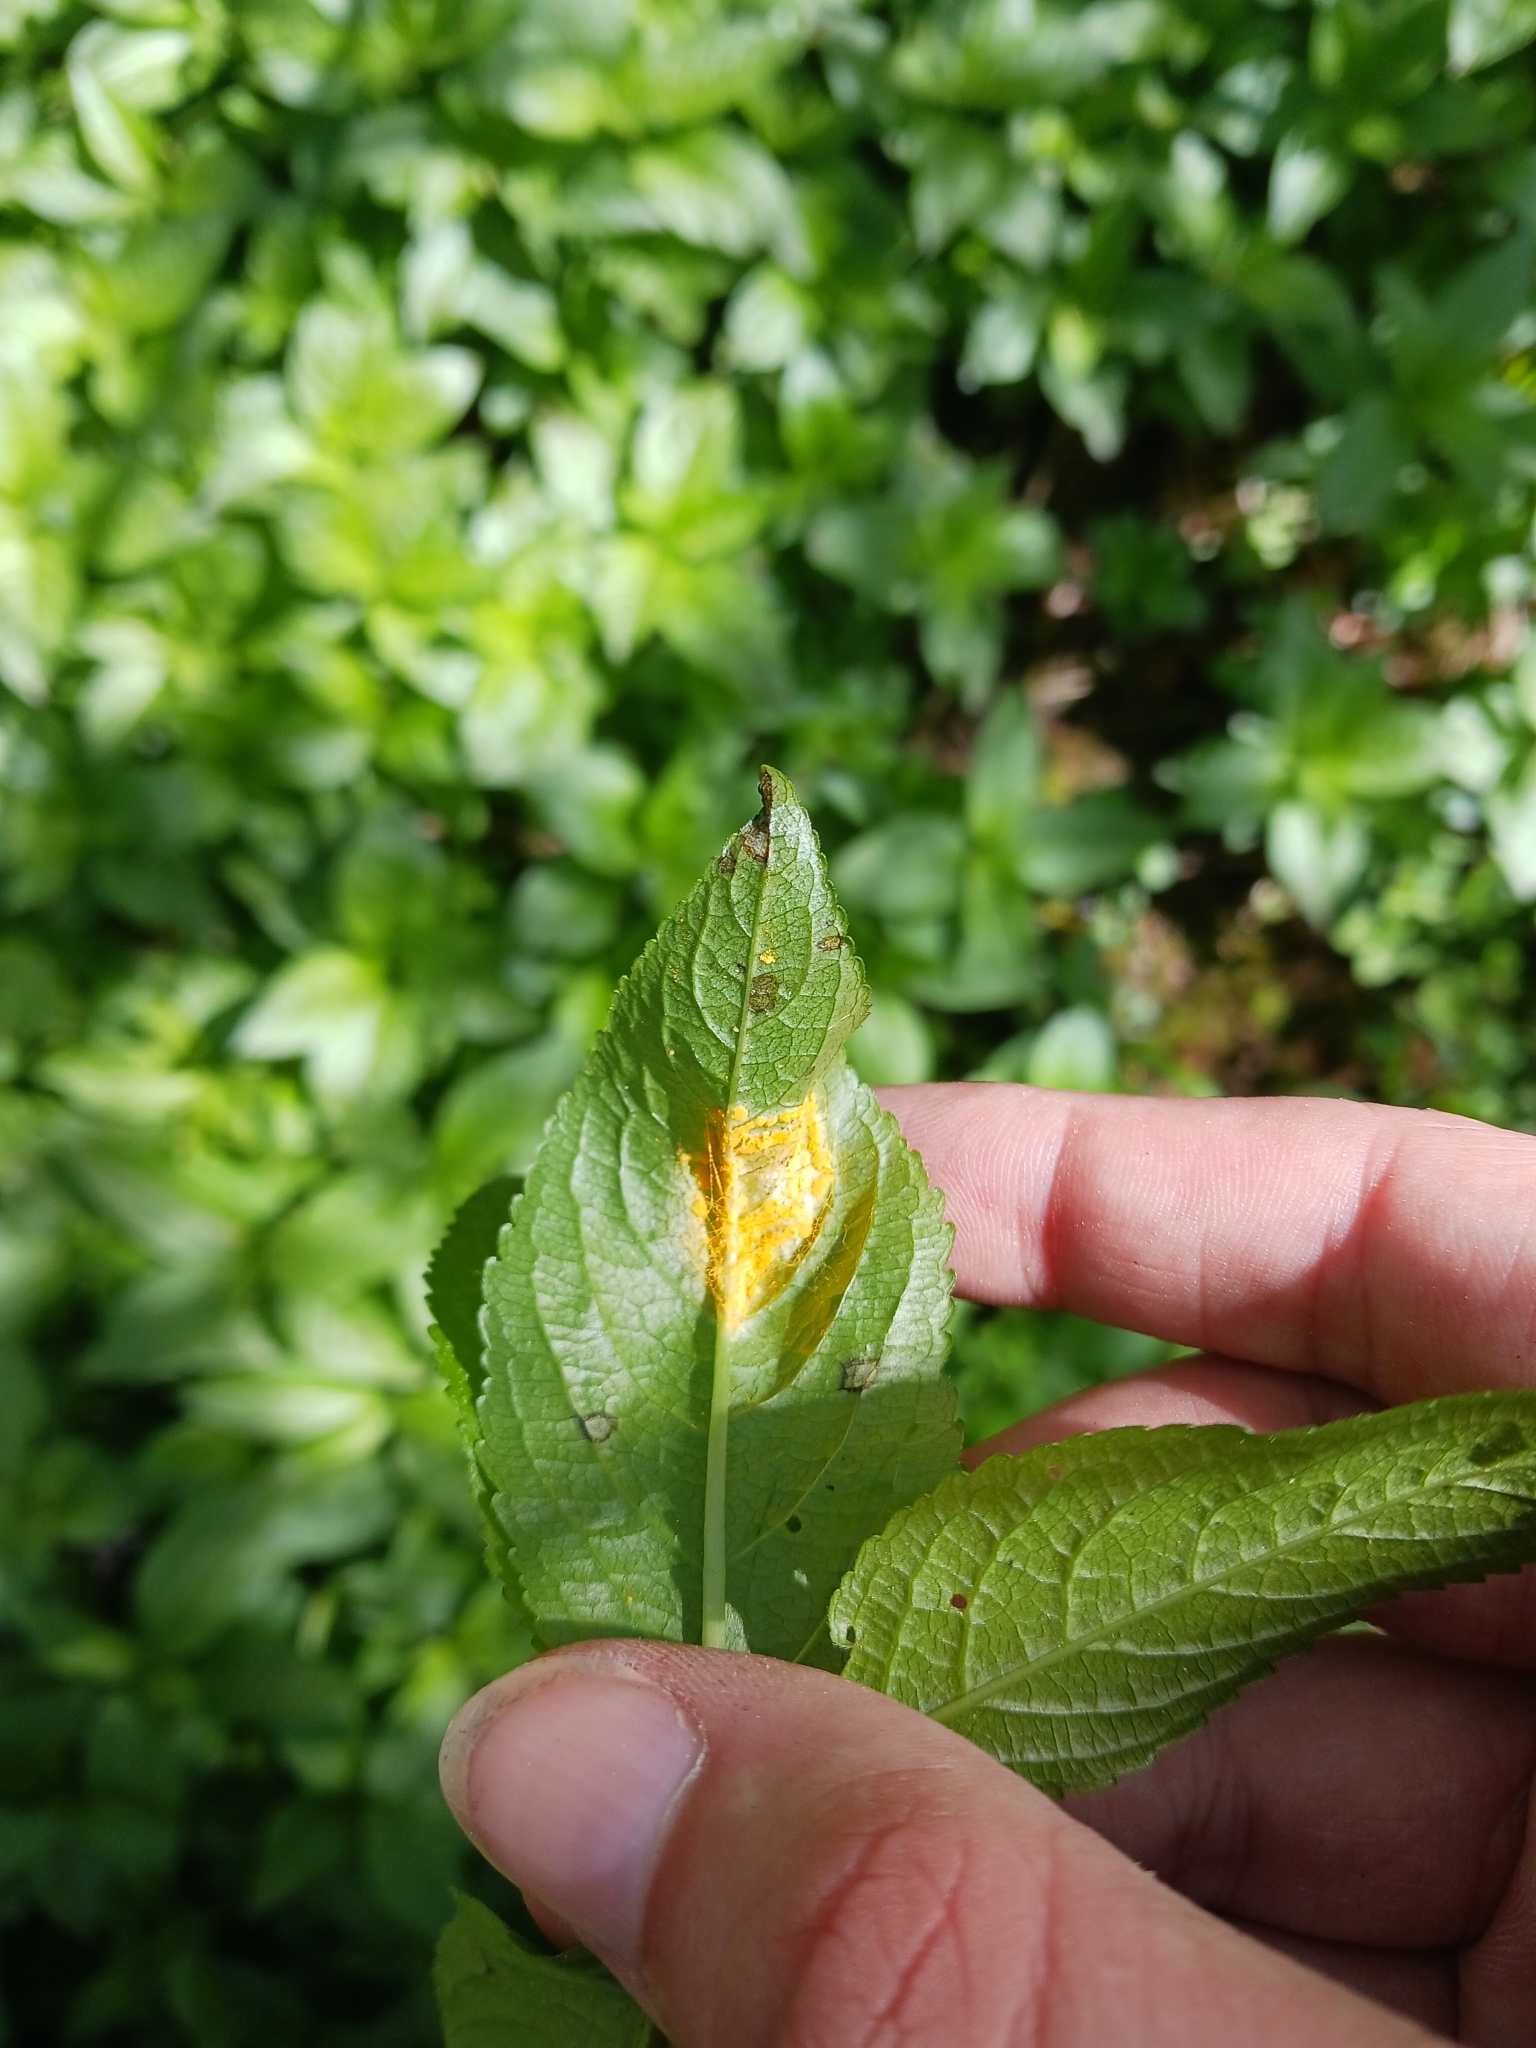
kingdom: Fungi
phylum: Basidiomycota
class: Pucciniomycetes
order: Pucciniales
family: Melampsoraceae
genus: Melampsora
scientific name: Melampsora rostrupii
